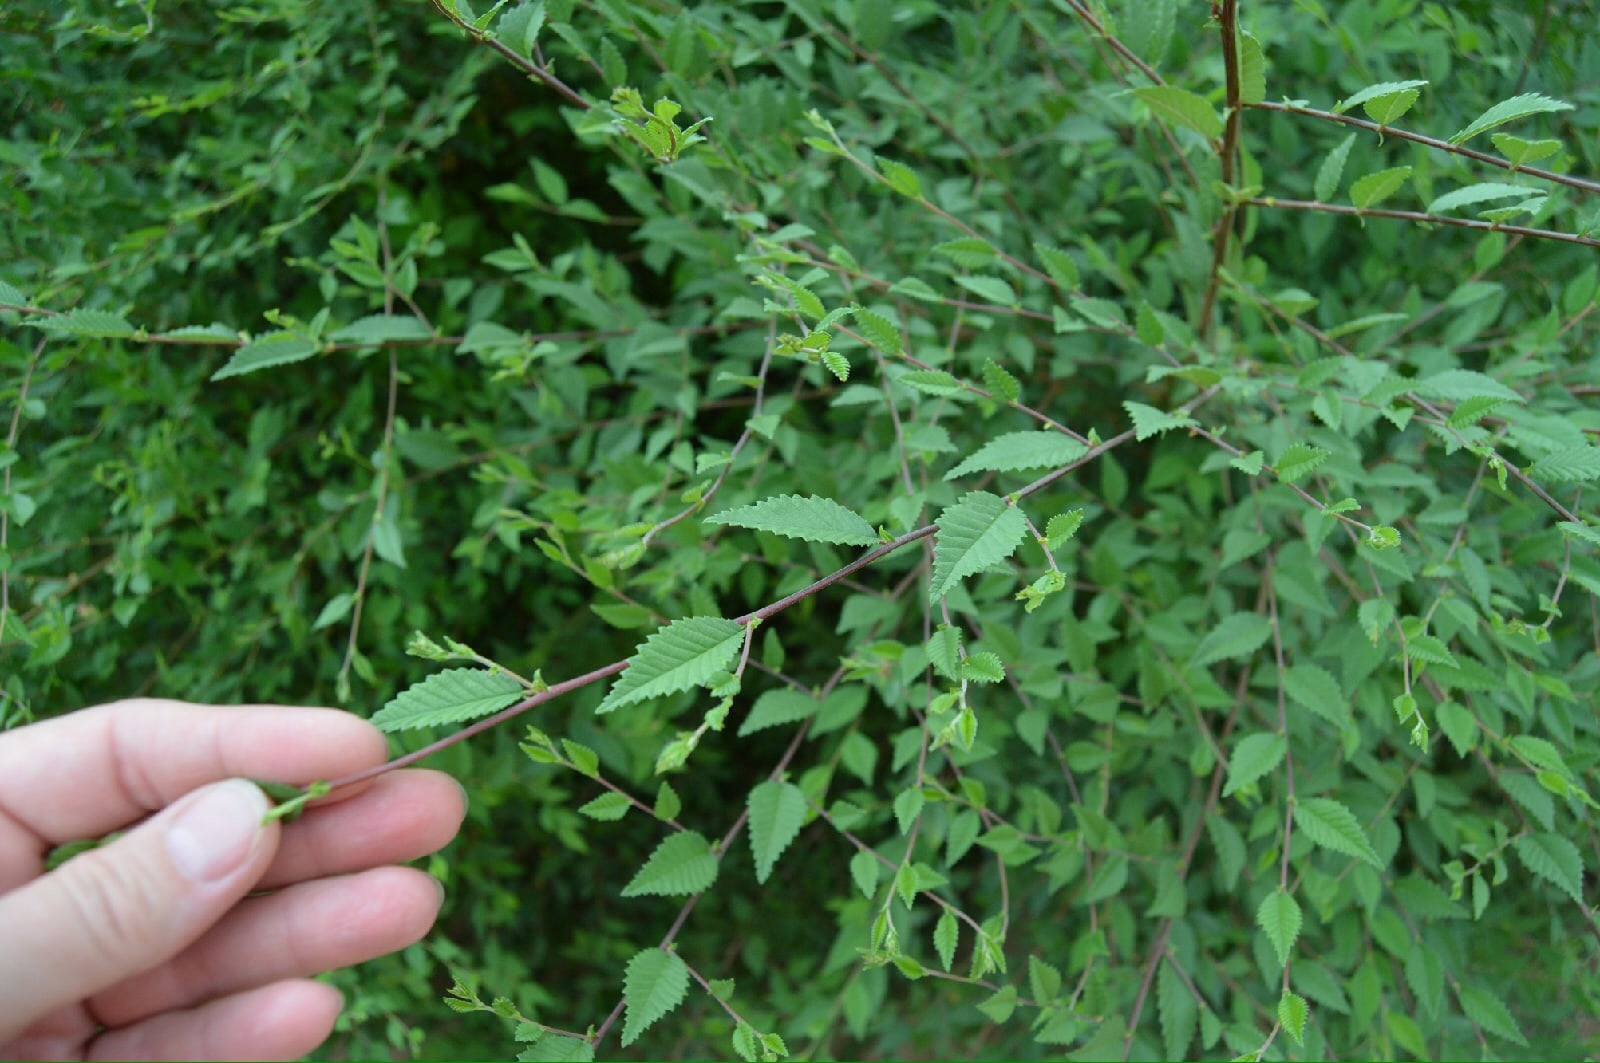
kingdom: Plantae
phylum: Tracheophyta
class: Magnoliopsida
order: Rosales
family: Ulmaceae
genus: Ulmus
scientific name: Ulmus pumila
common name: Siberian elm
